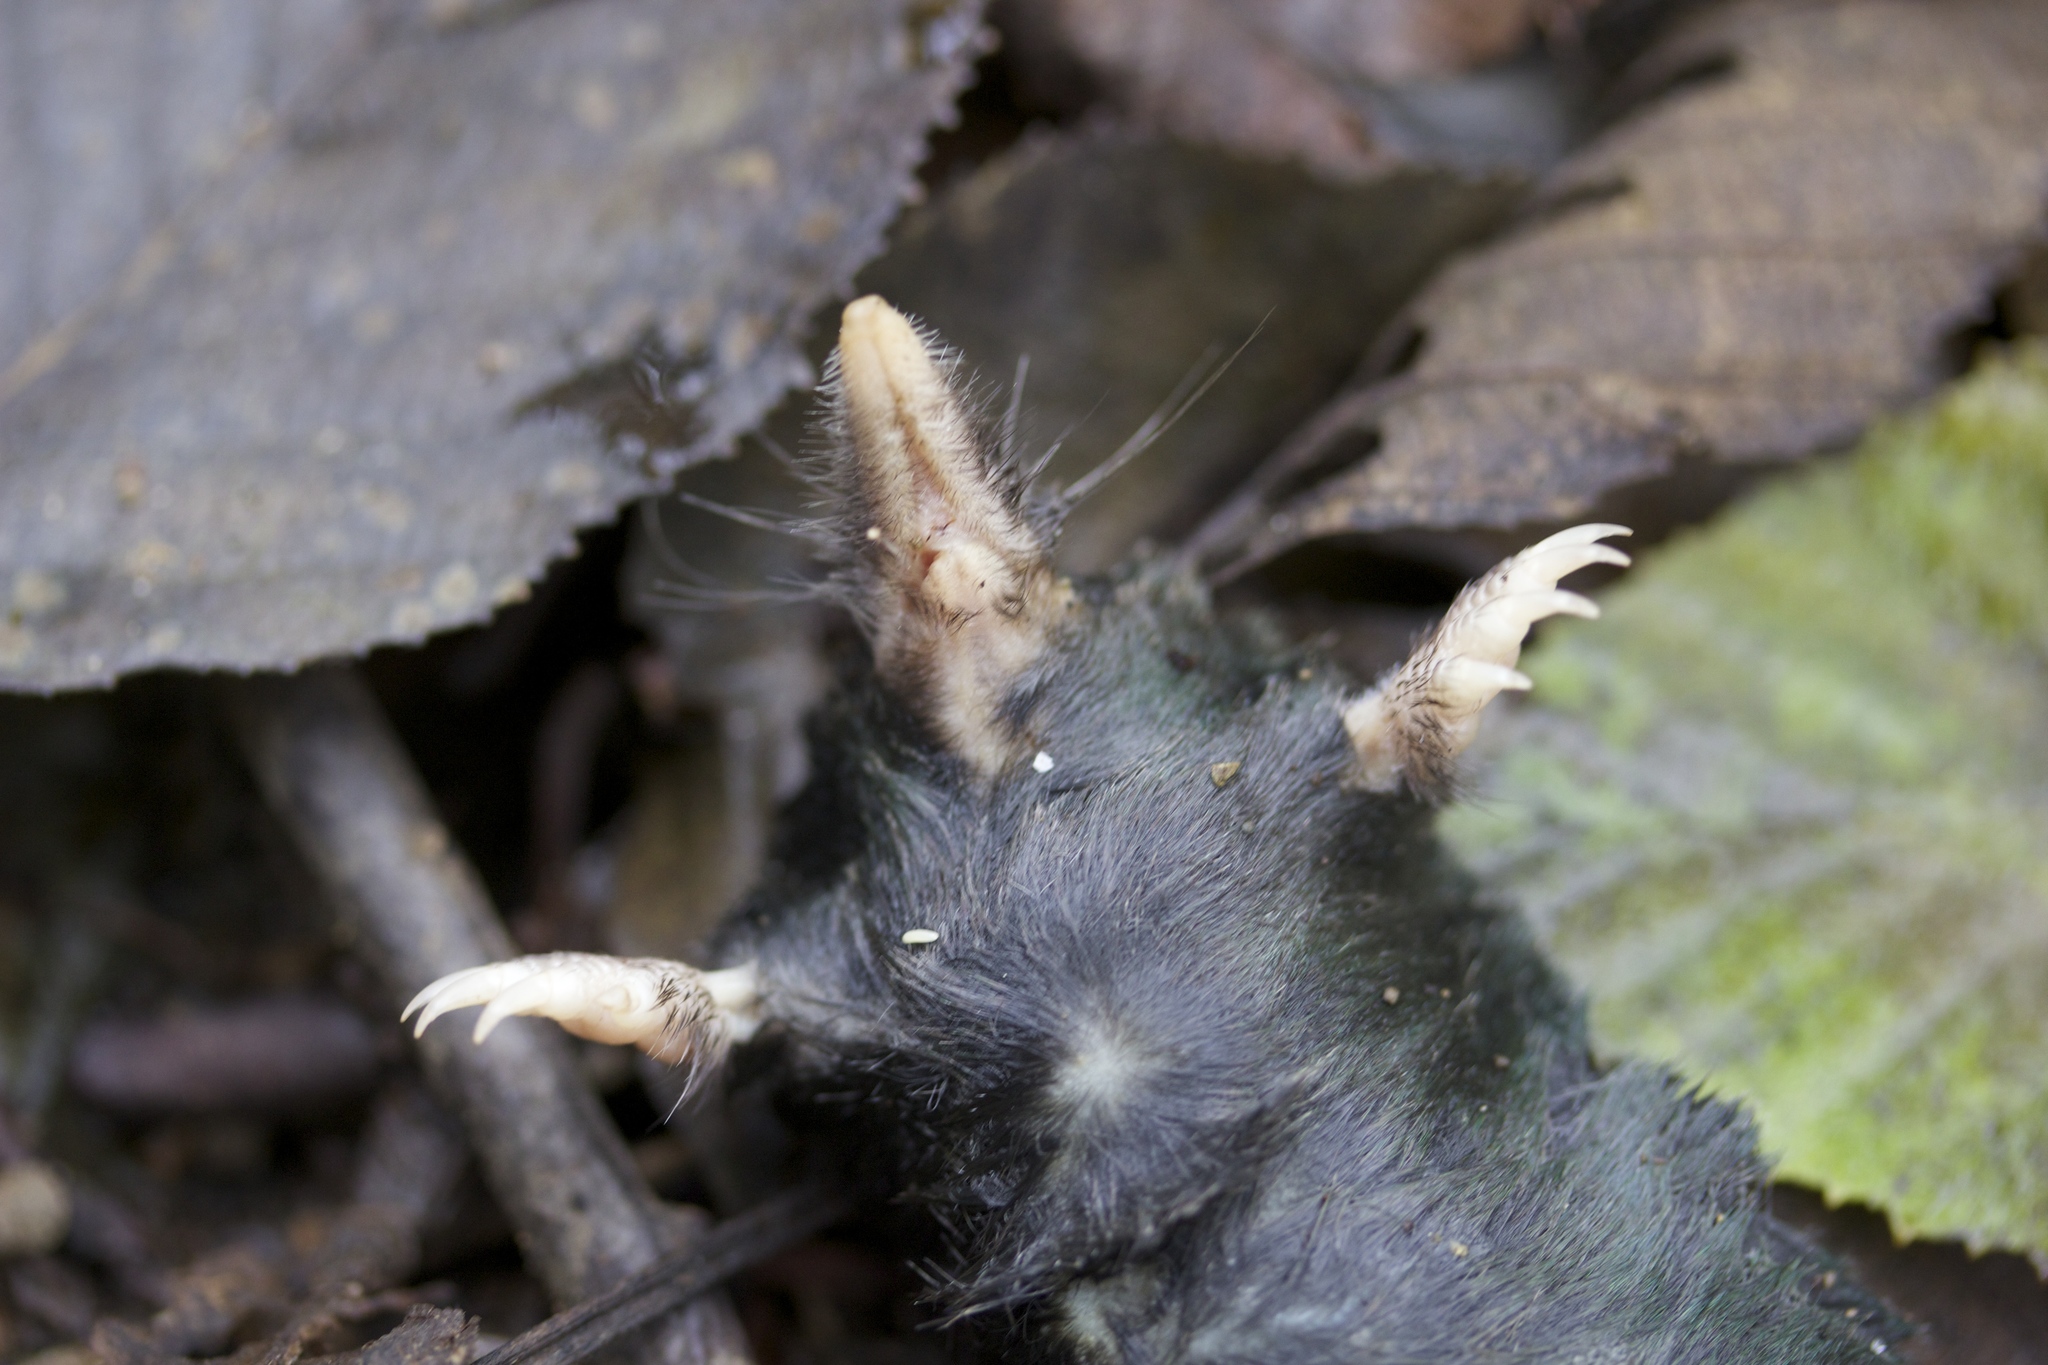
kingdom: Animalia
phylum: Chordata
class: Mammalia
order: Soricomorpha
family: Talpidae
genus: Neurotrichus
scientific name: Neurotrichus gibbsii
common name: American shrew mole
